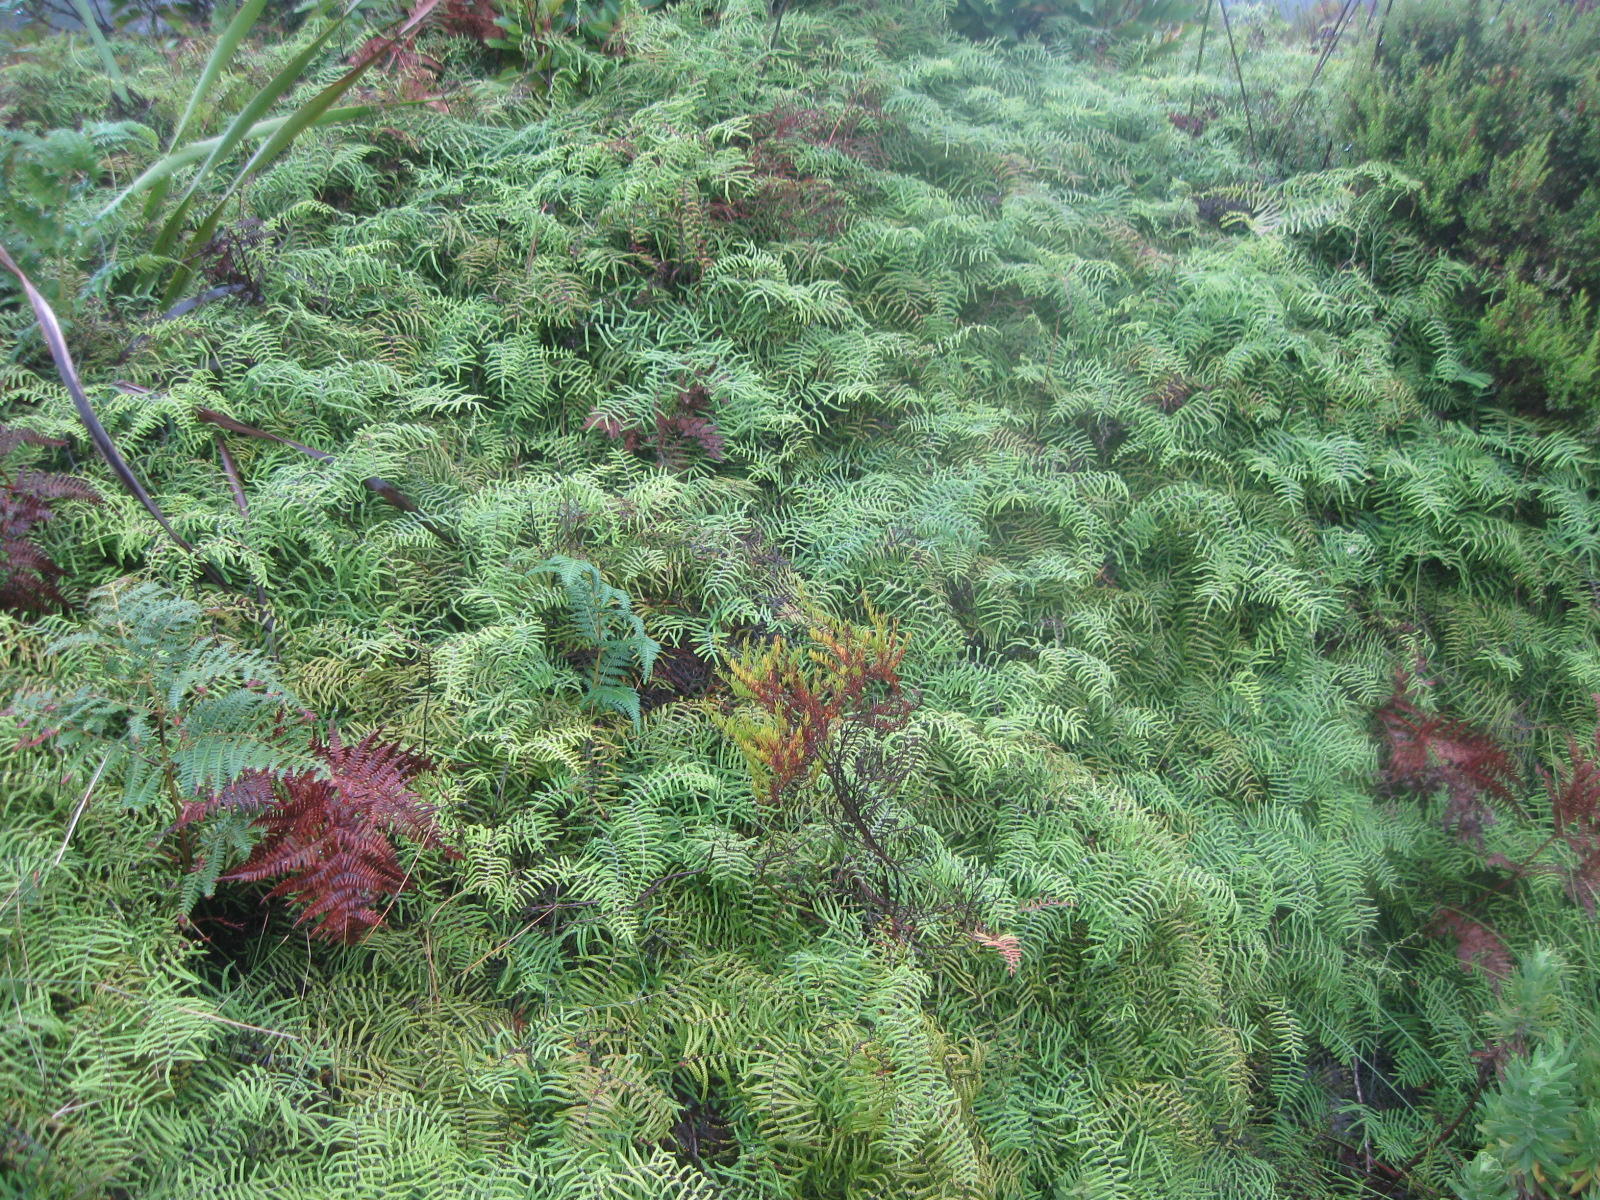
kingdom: Plantae
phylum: Tracheophyta
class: Polypodiopsida
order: Gleicheniales
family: Gleicheniaceae
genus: Gleichenia
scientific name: Gleichenia polypodioides
